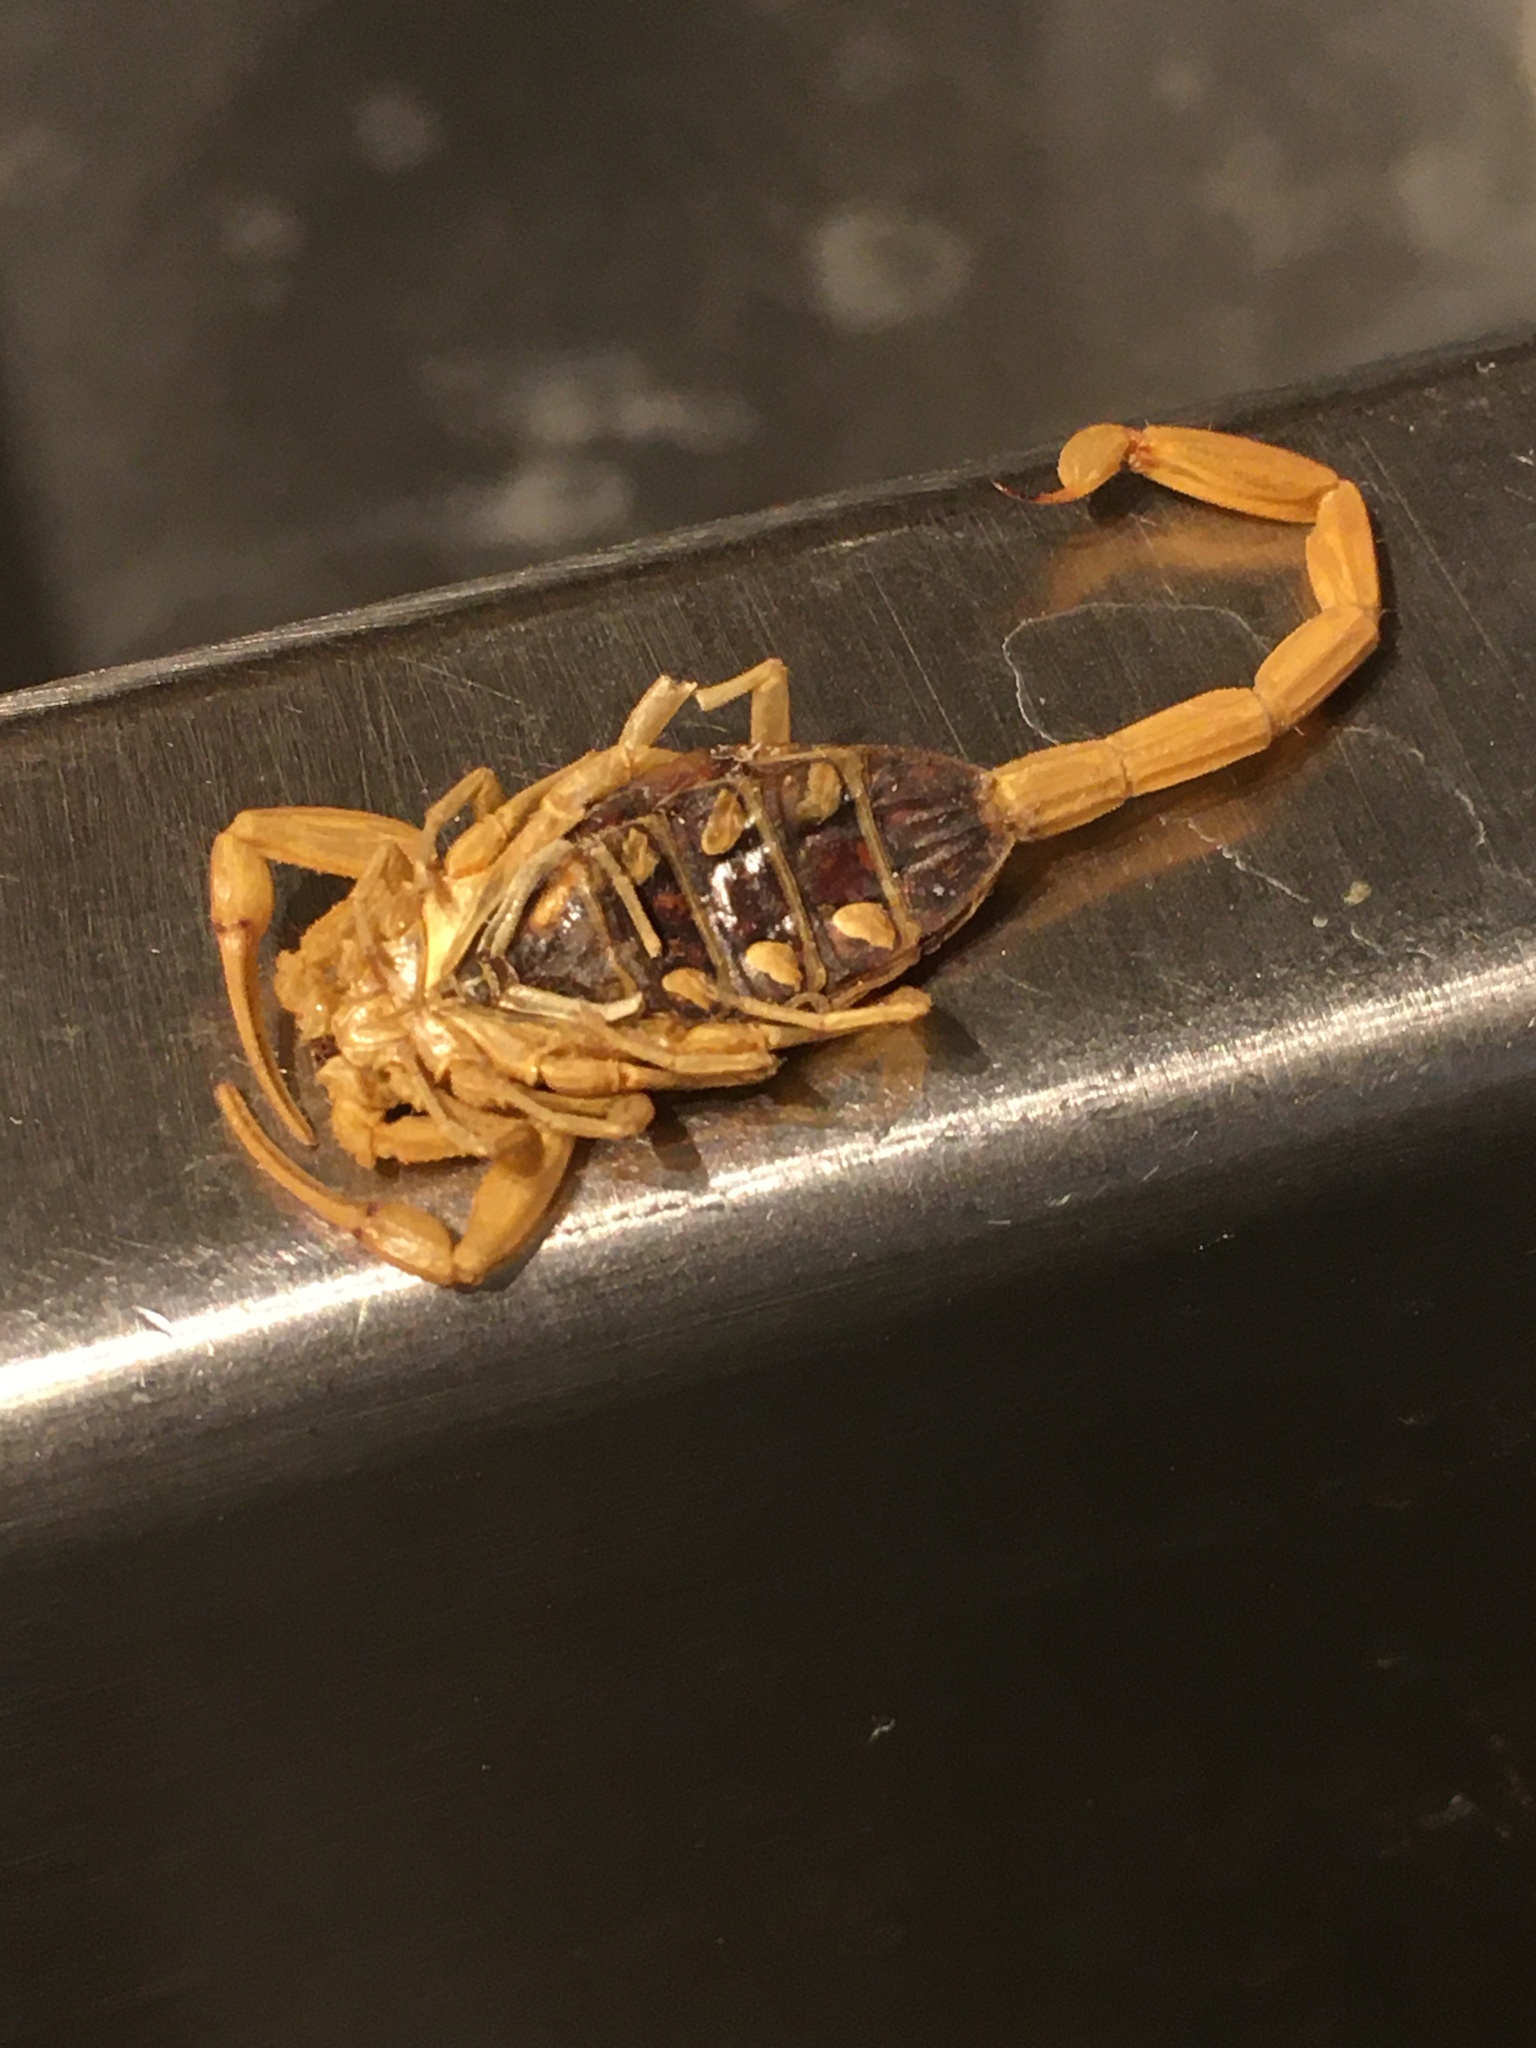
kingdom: Animalia
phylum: Arthropoda
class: Arachnida
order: Scorpiones
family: Buthidae
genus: Centruroides
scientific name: Centruroides sculpturatus
